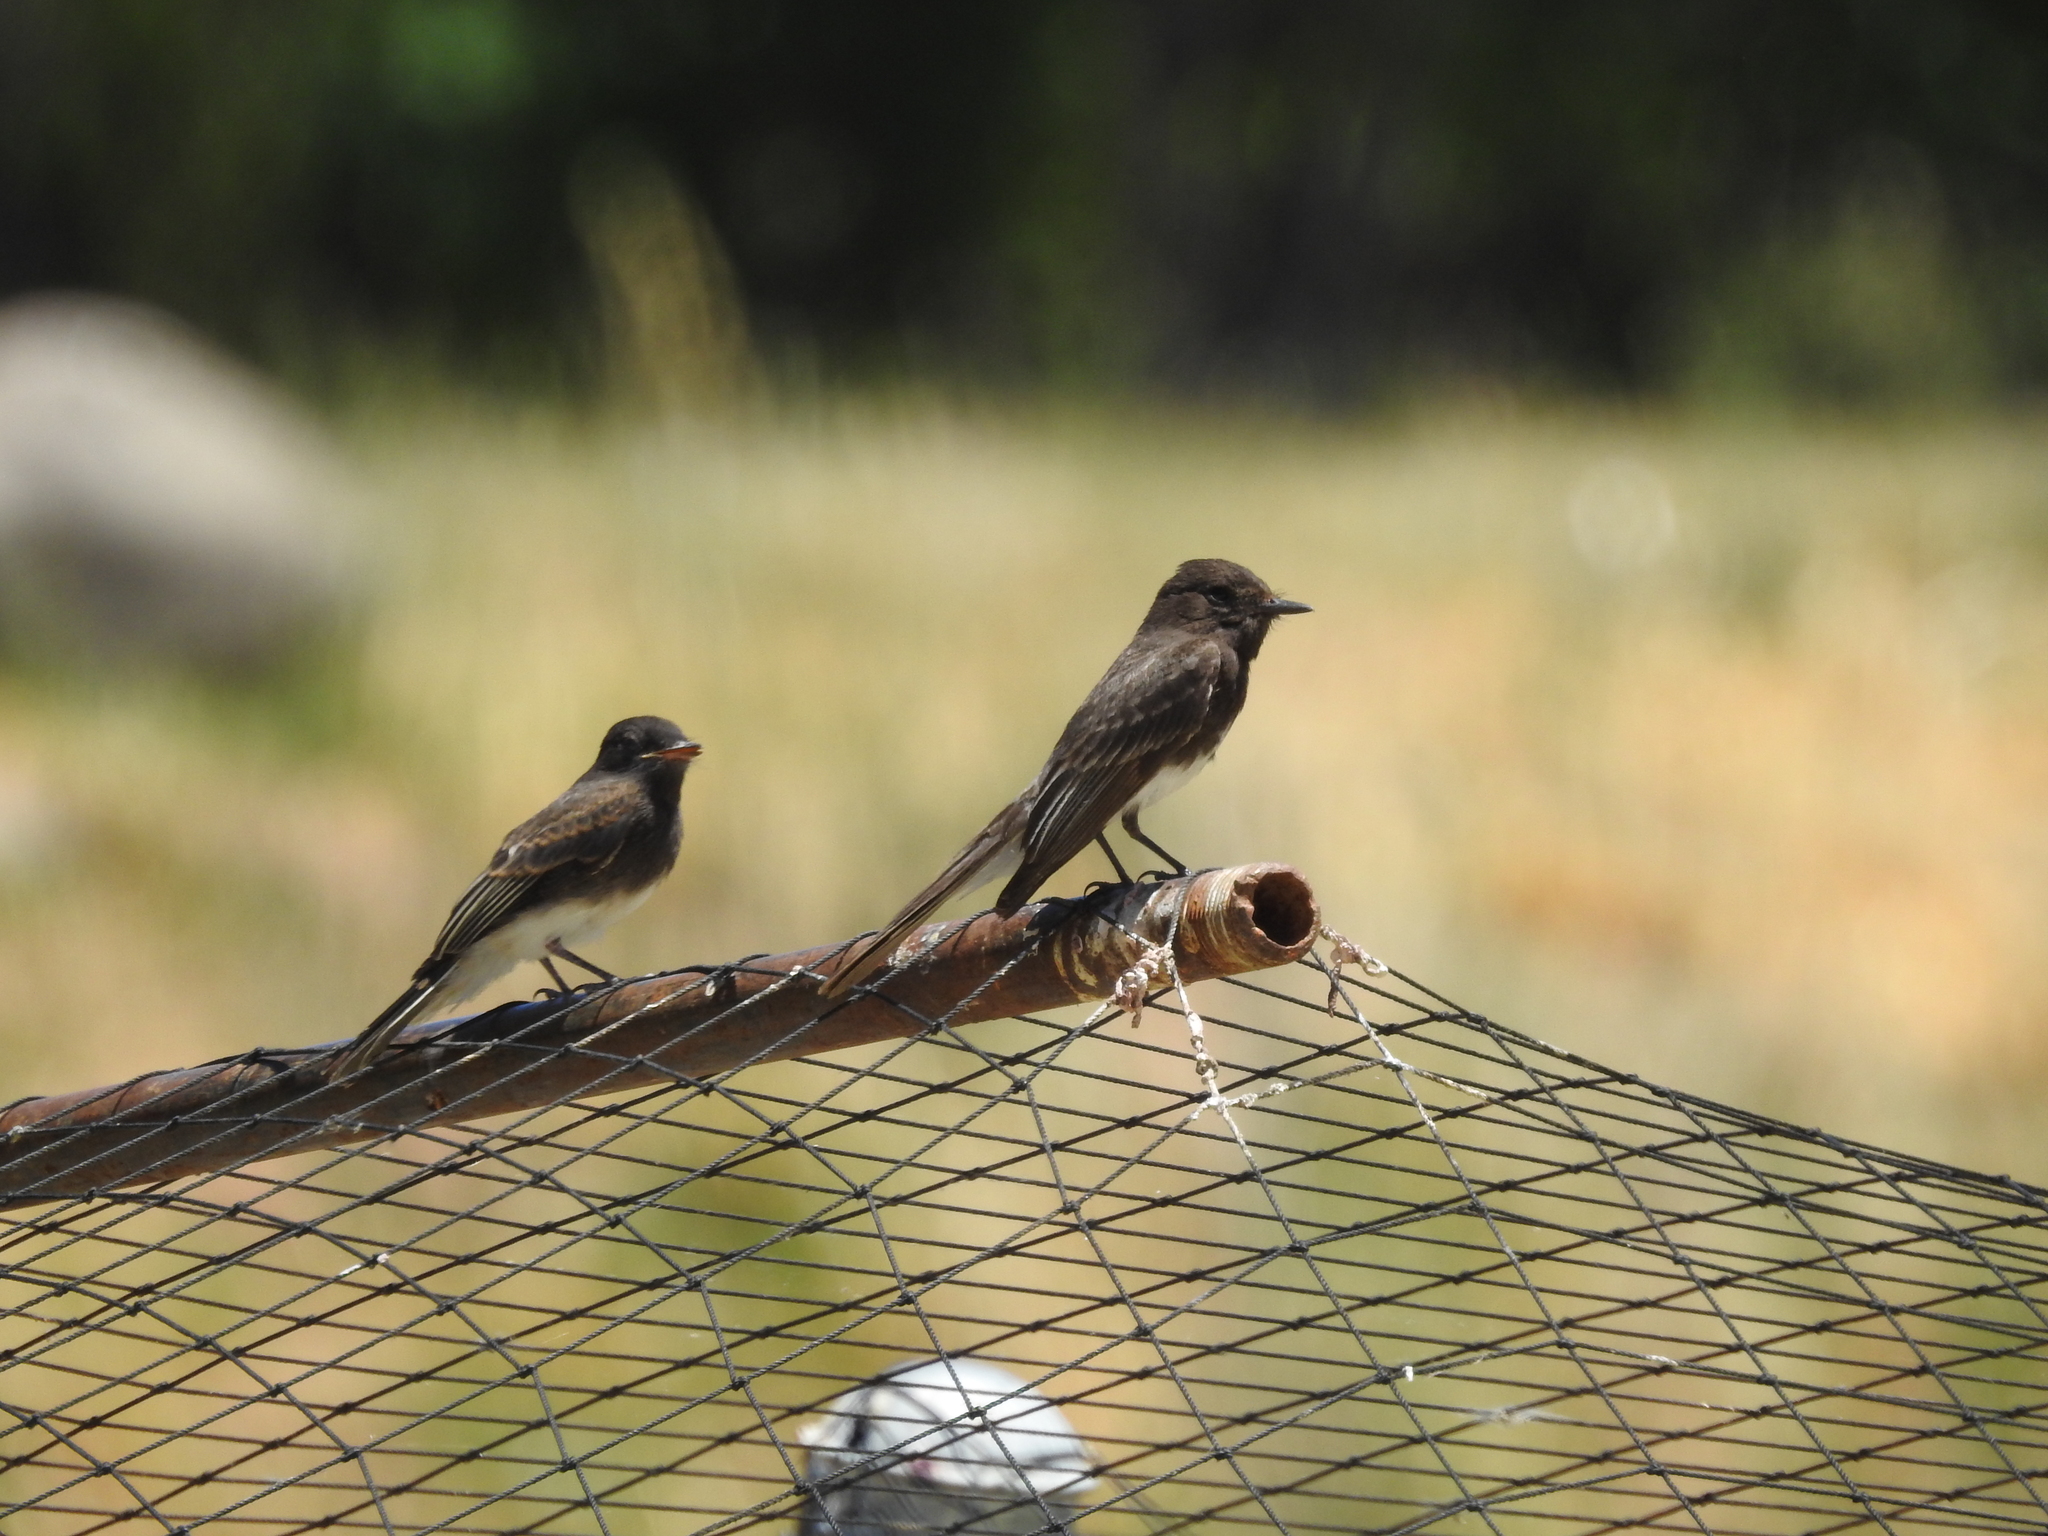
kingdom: Animalia
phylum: Chordata
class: Aves
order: Passeriformes
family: Tyrannidae
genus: Sayornis
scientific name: Sayornis nigricans
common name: Black phoebe
